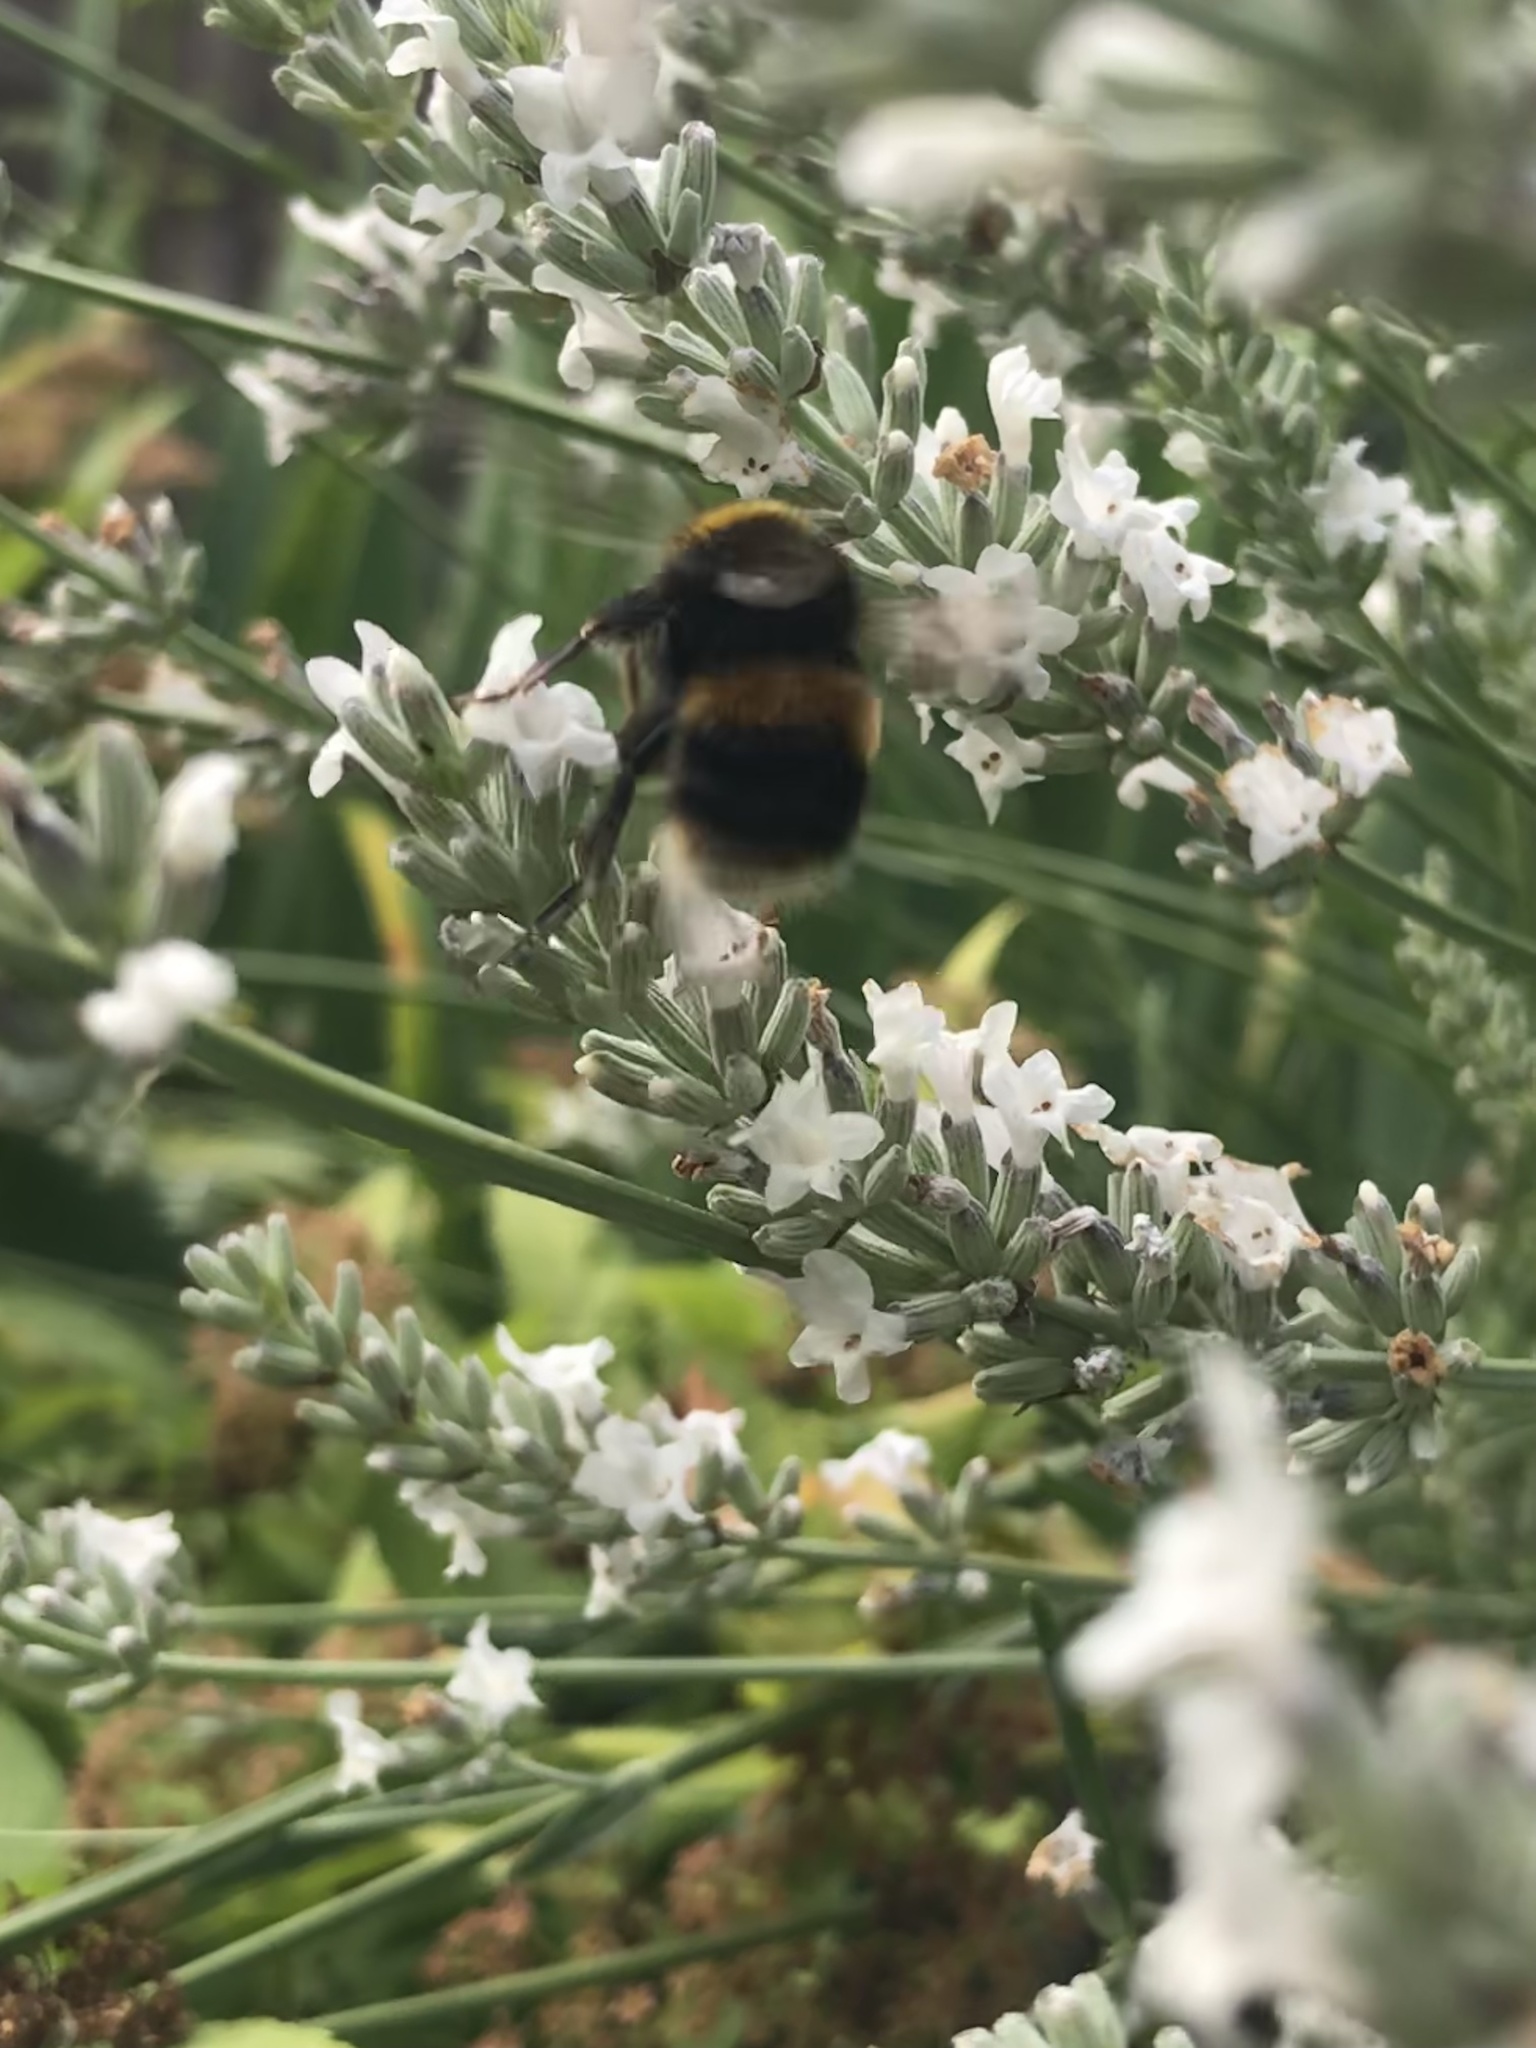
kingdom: Animalia
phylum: Arthropoda
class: Insecta
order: Hymenoptera
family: Apidae
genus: Bombus
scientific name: Bombus terrestris
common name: Buff-tailed bumblebee
